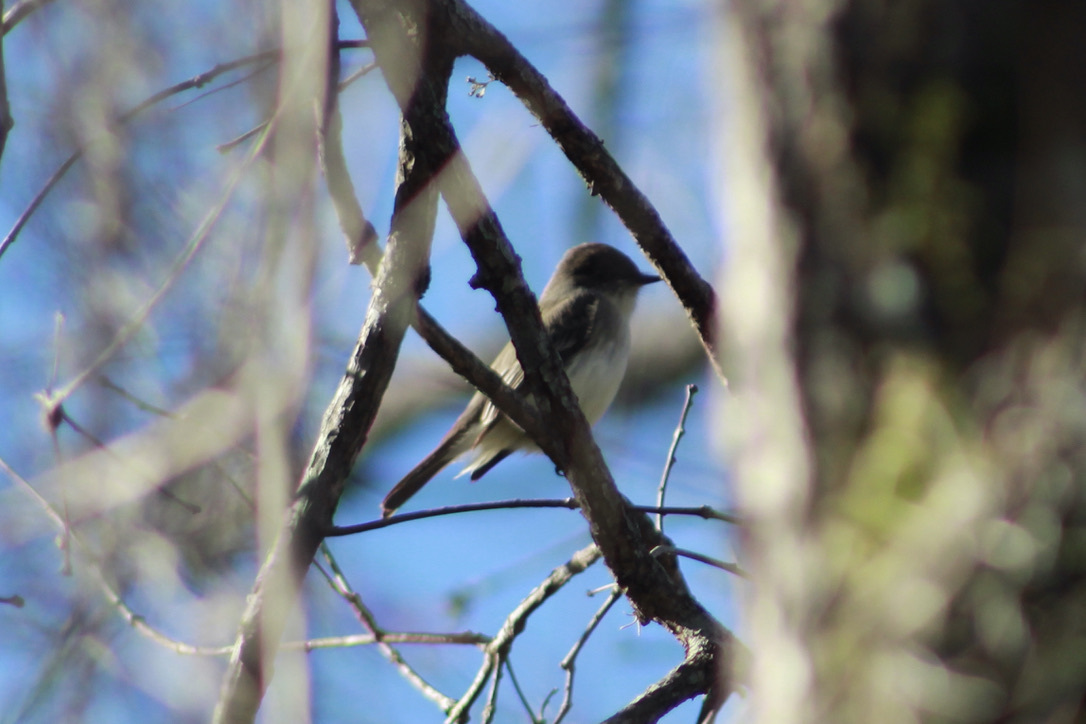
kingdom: Animalia
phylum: Chordata
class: Aves
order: Passeriformes
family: Tyrannidae
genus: Sayornis
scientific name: Sayornis phoebe
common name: Eastern phoebe
